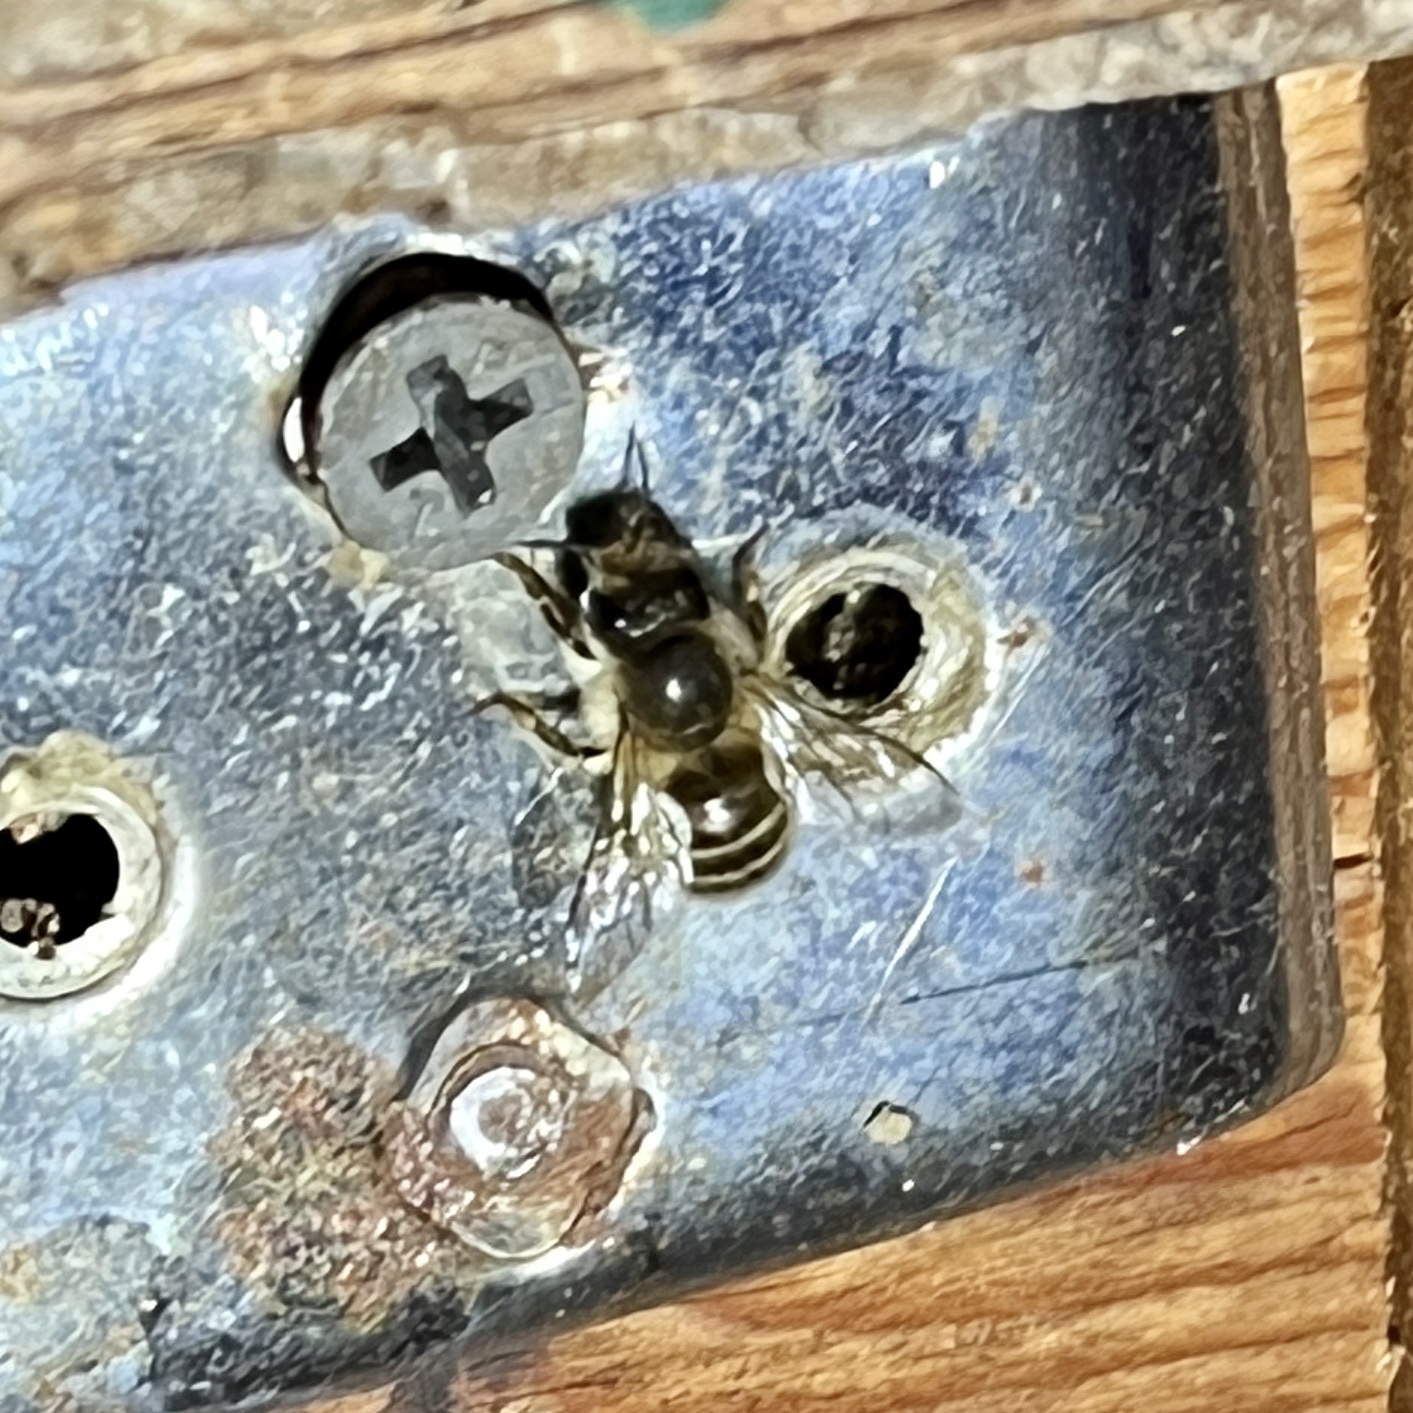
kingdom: Animalia
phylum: Arthropoda
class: Insecta
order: Hymenoptera
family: Megachilidae
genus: Osmia
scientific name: Osmia cornifrons
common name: Horn-faced bee
